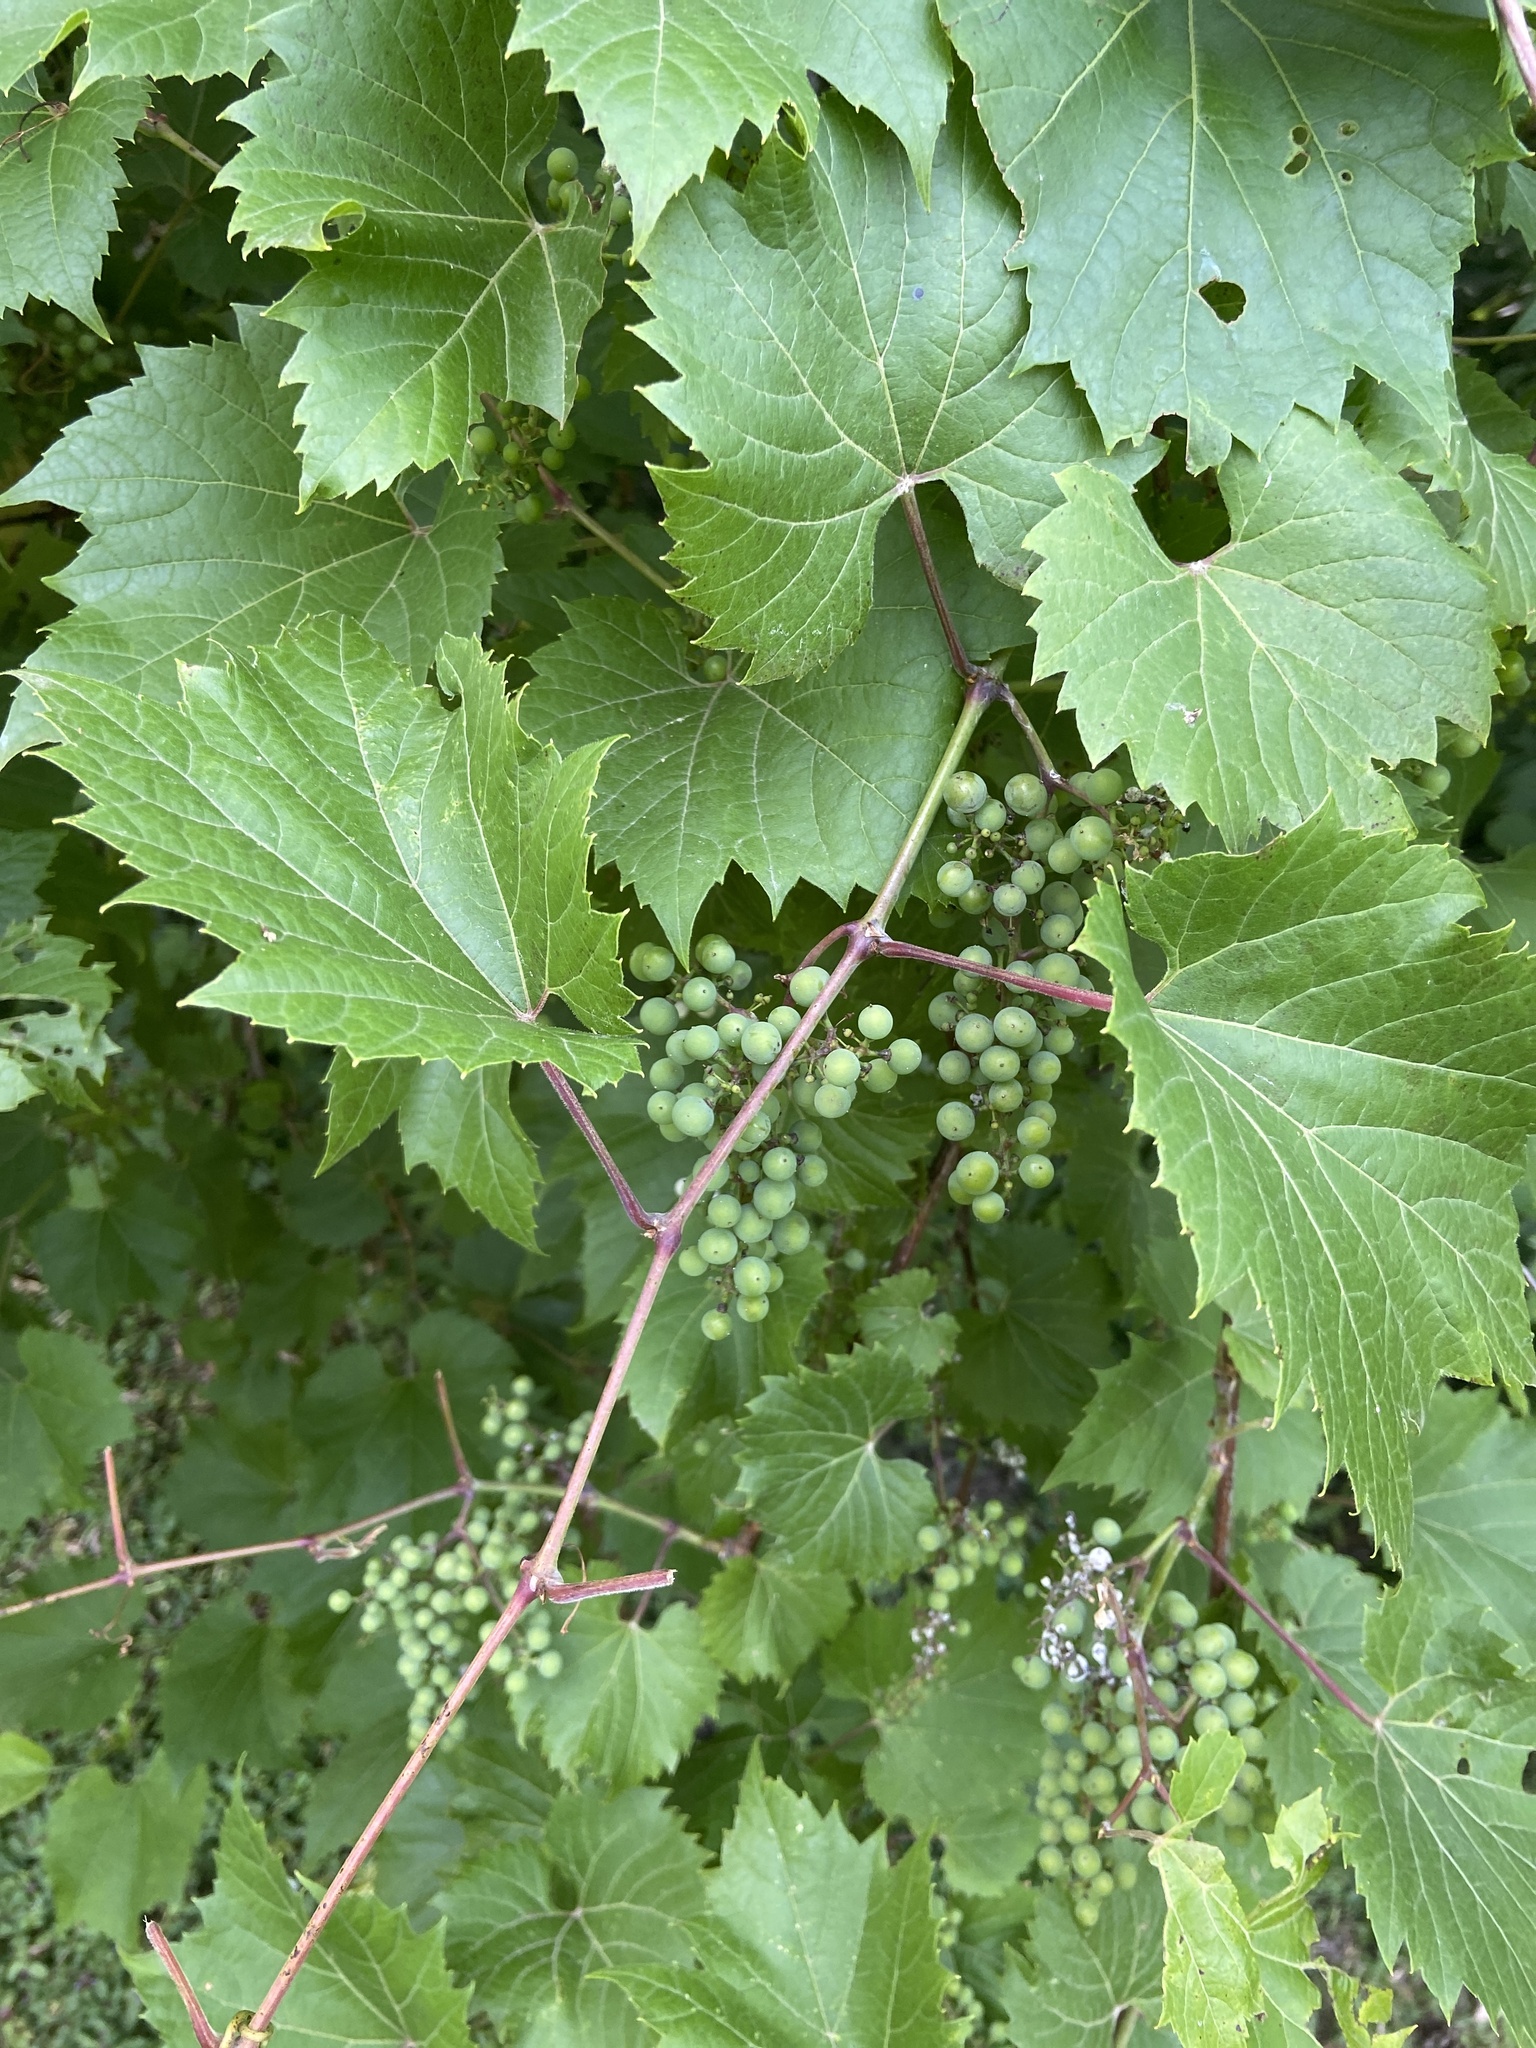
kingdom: Plantae
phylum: Tracheophyta
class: Magnoliopsida
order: Vitales
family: Vitaceae
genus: Vitis
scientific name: Vitis riparia
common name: Frost grape
